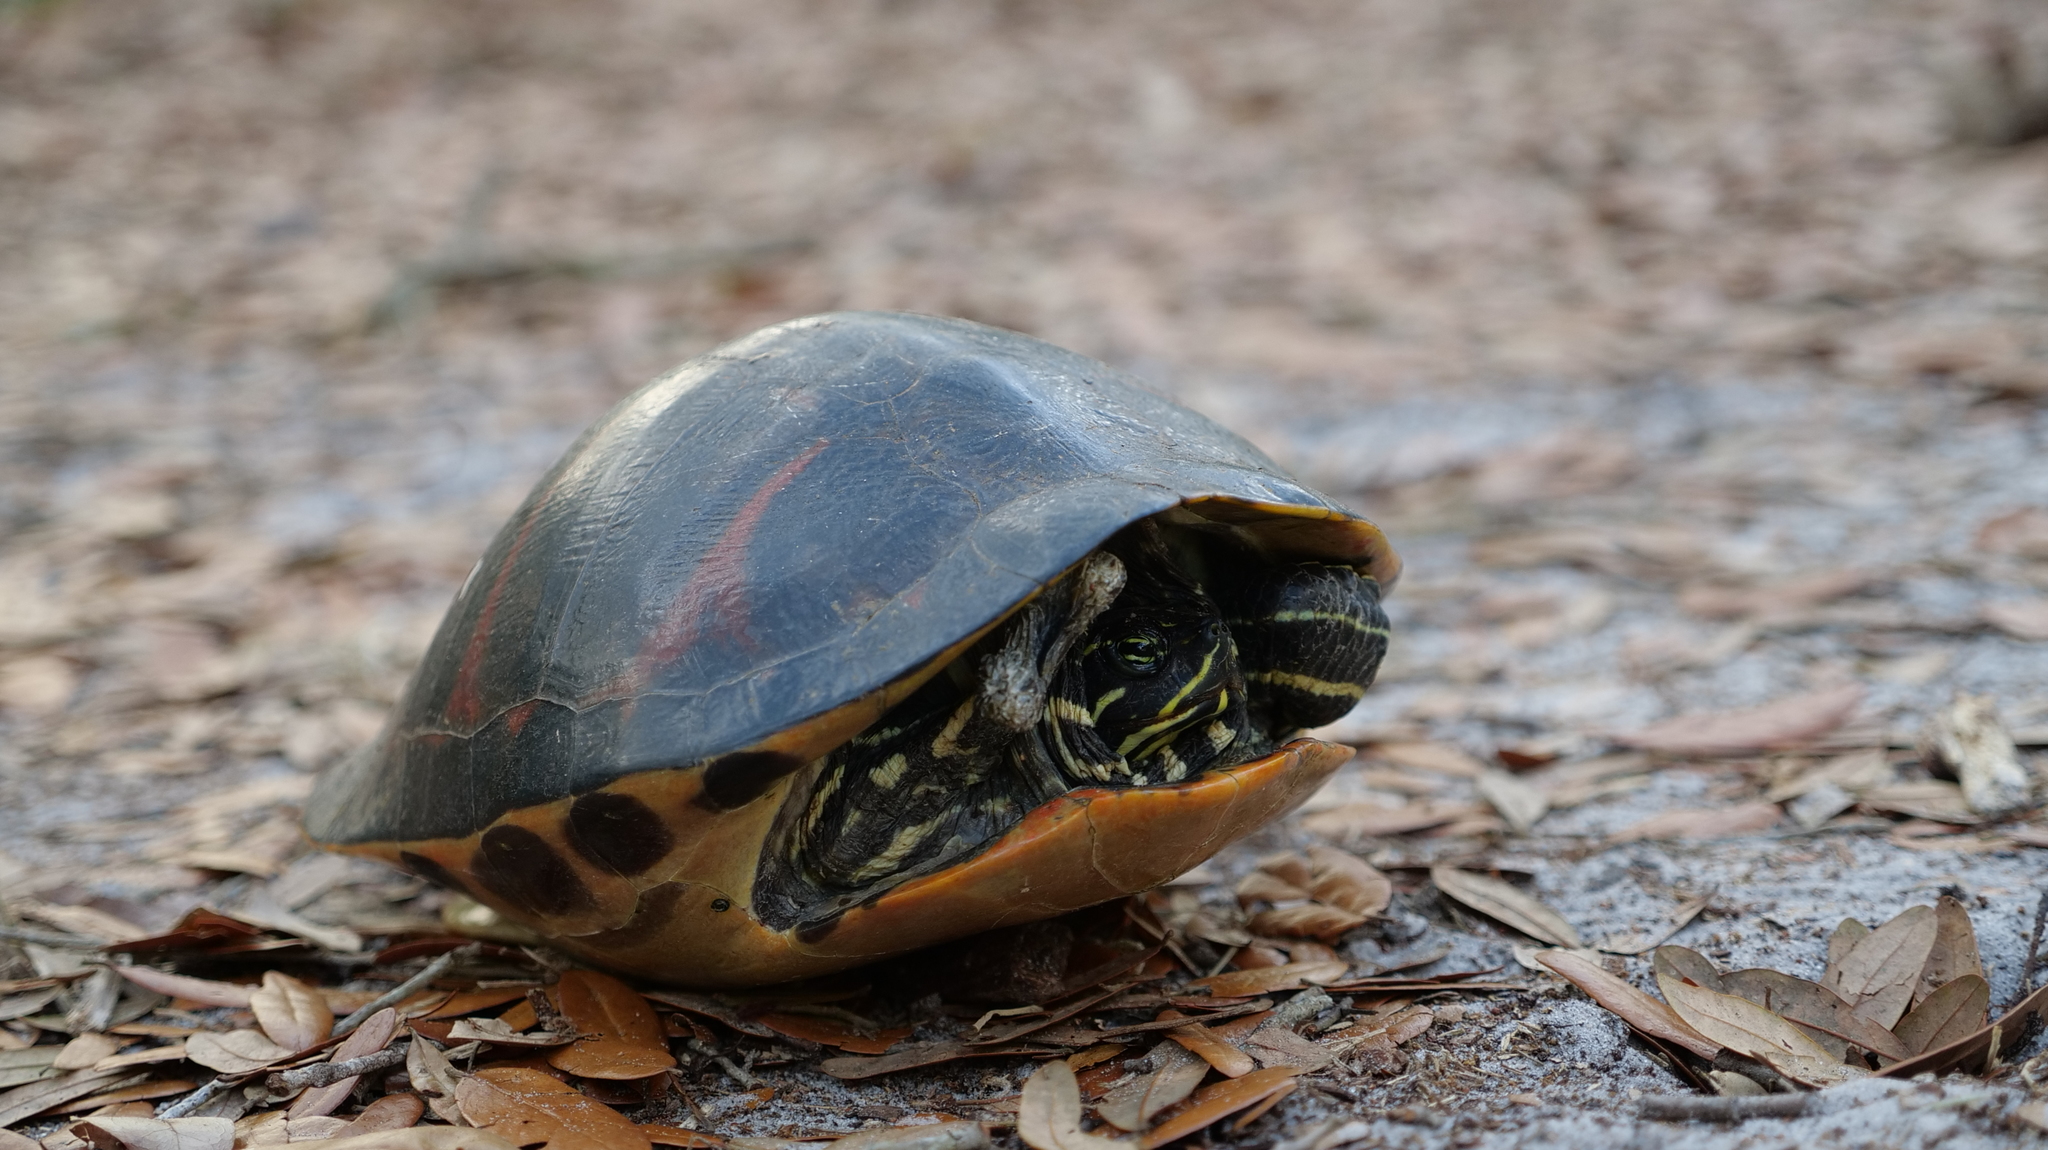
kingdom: Animalia
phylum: Chordata
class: Testudines
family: Emydidae
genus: Pseudemys
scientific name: Pseudemys nelsoni
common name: Florida red-bellied turtle
